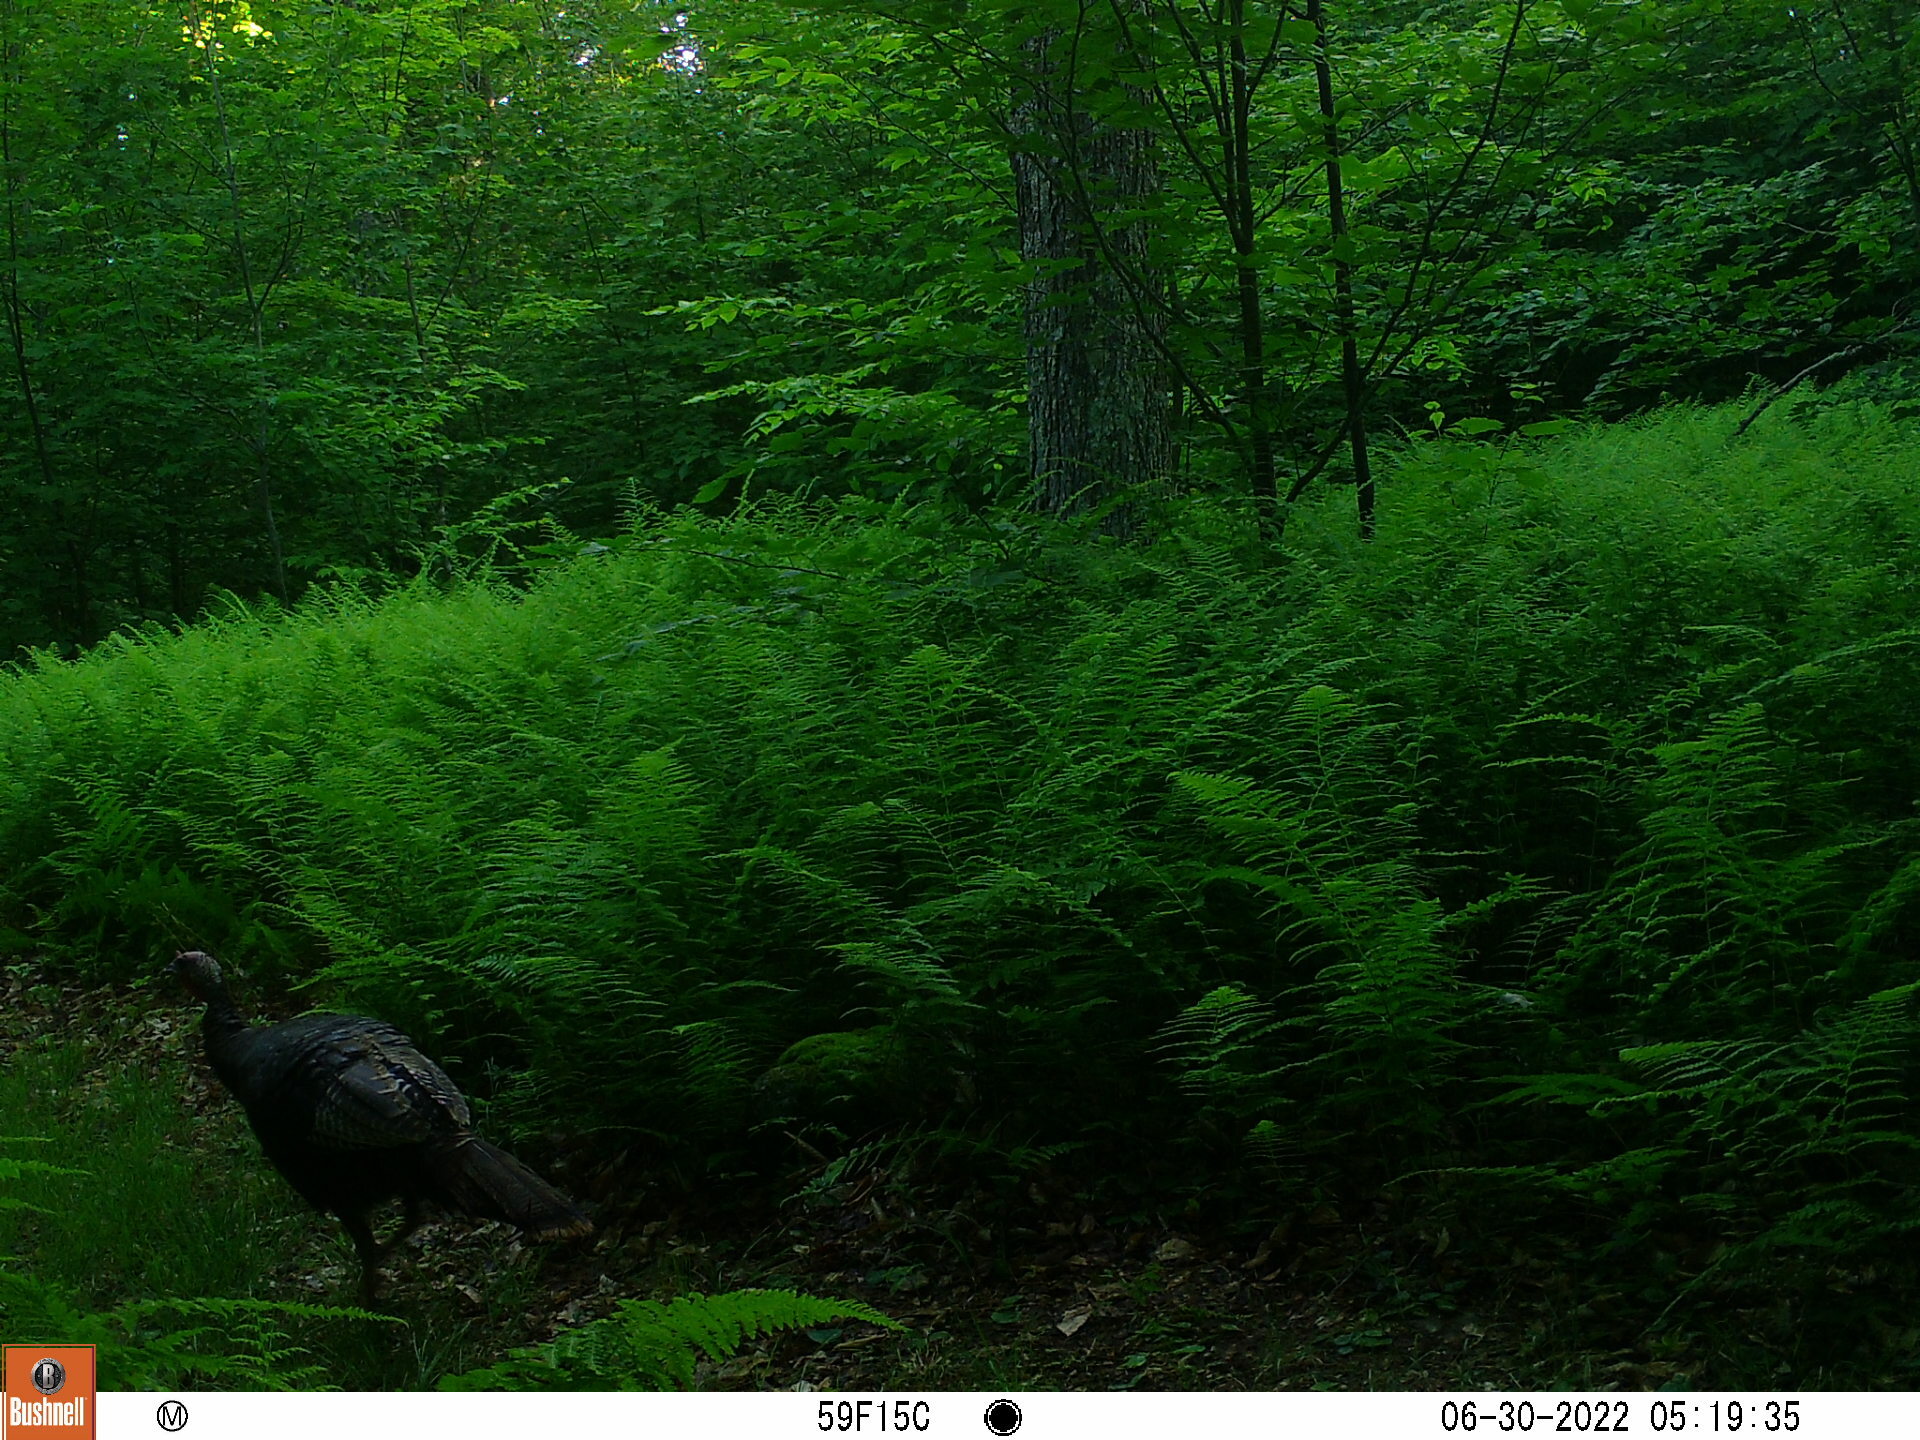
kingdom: Animalia
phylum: Chordata
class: Aves
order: Galliformes
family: Phasianidae
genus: Meleagris
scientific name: Meleagris gallopavo
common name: Wild turkey
